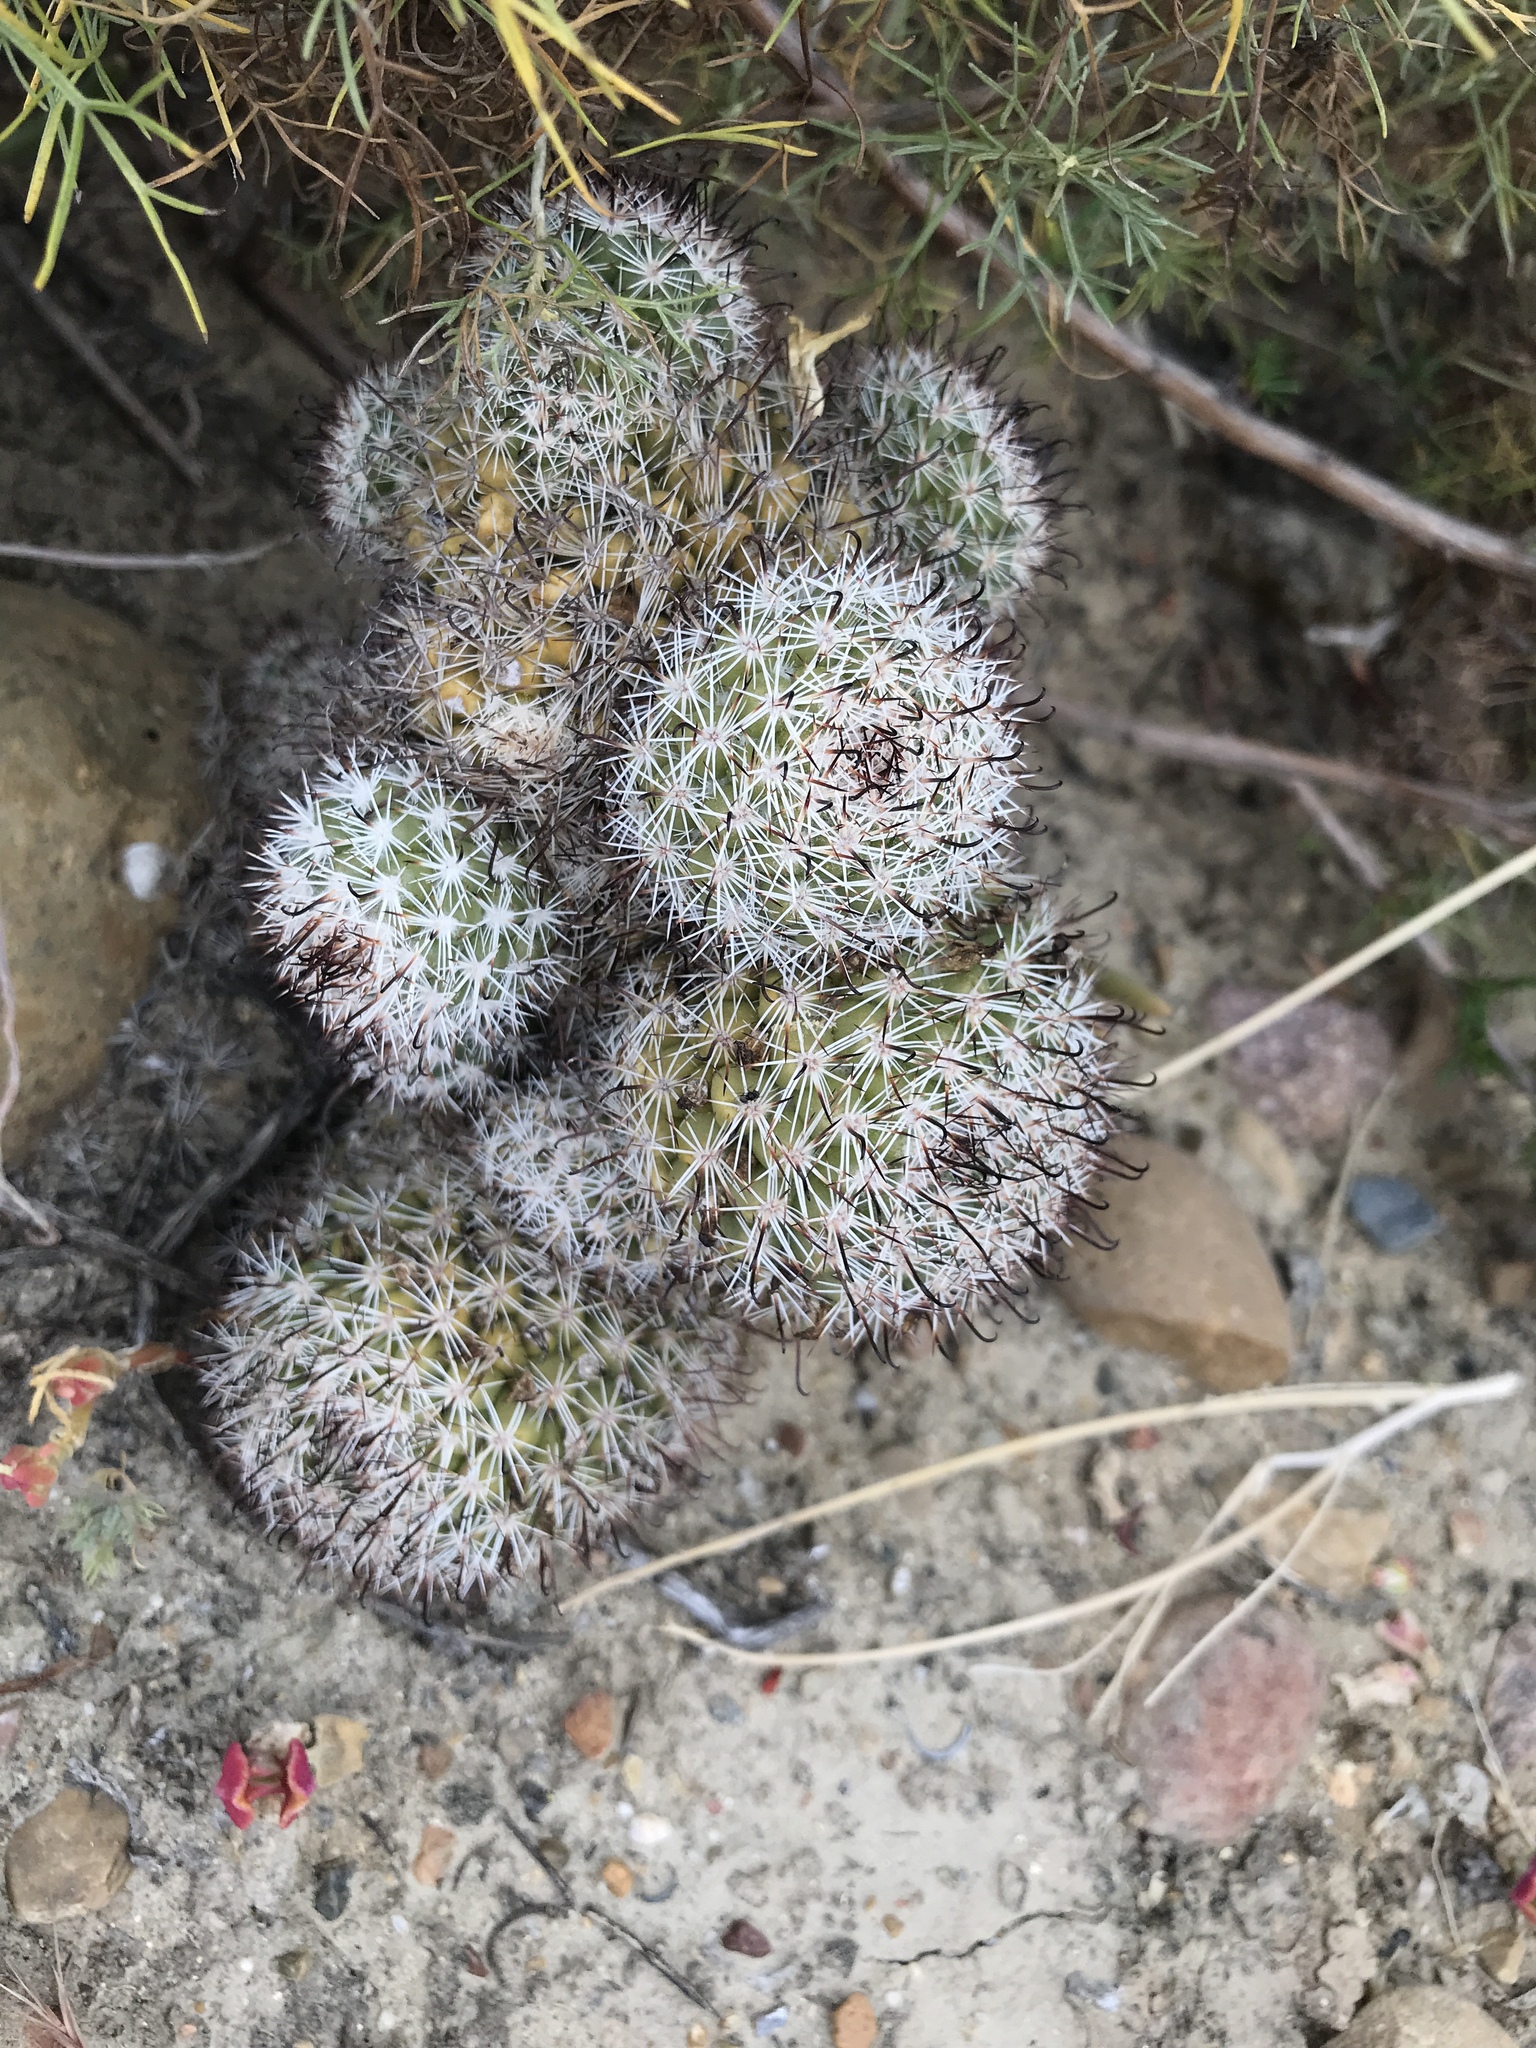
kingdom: Plantae
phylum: Tracheophyta
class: Magnoliopsida
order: Caryophyllales
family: Cactaceae
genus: Cochemiea
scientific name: Cochemiea dioica
